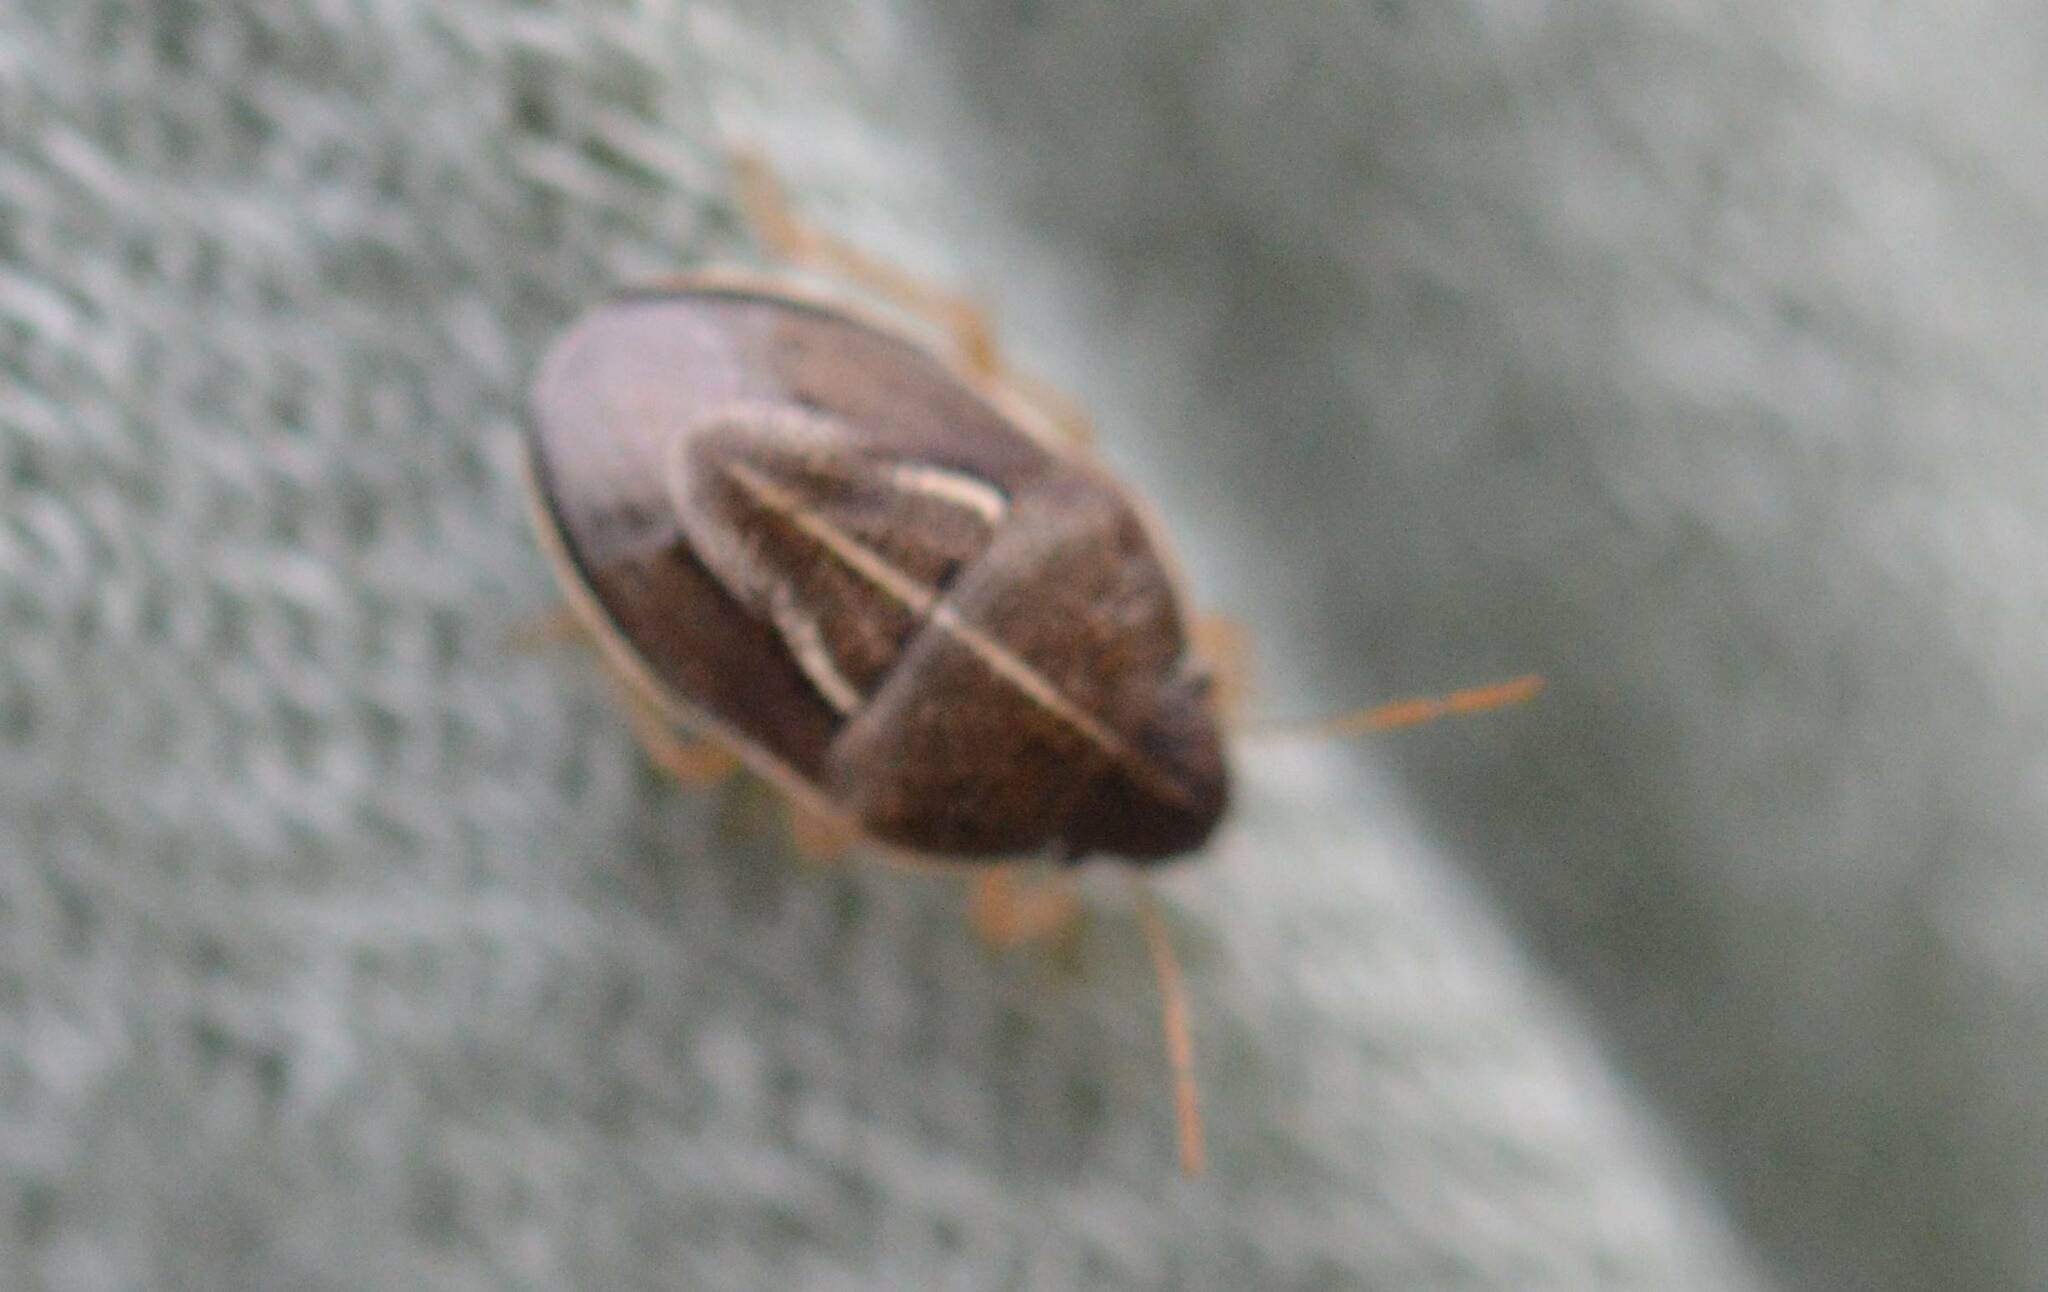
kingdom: Animalia
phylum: Arthropoda
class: Insecta
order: Hemiptera
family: Pentatomidae
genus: Neottiglossa
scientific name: Neottiglossa flavomarginata
